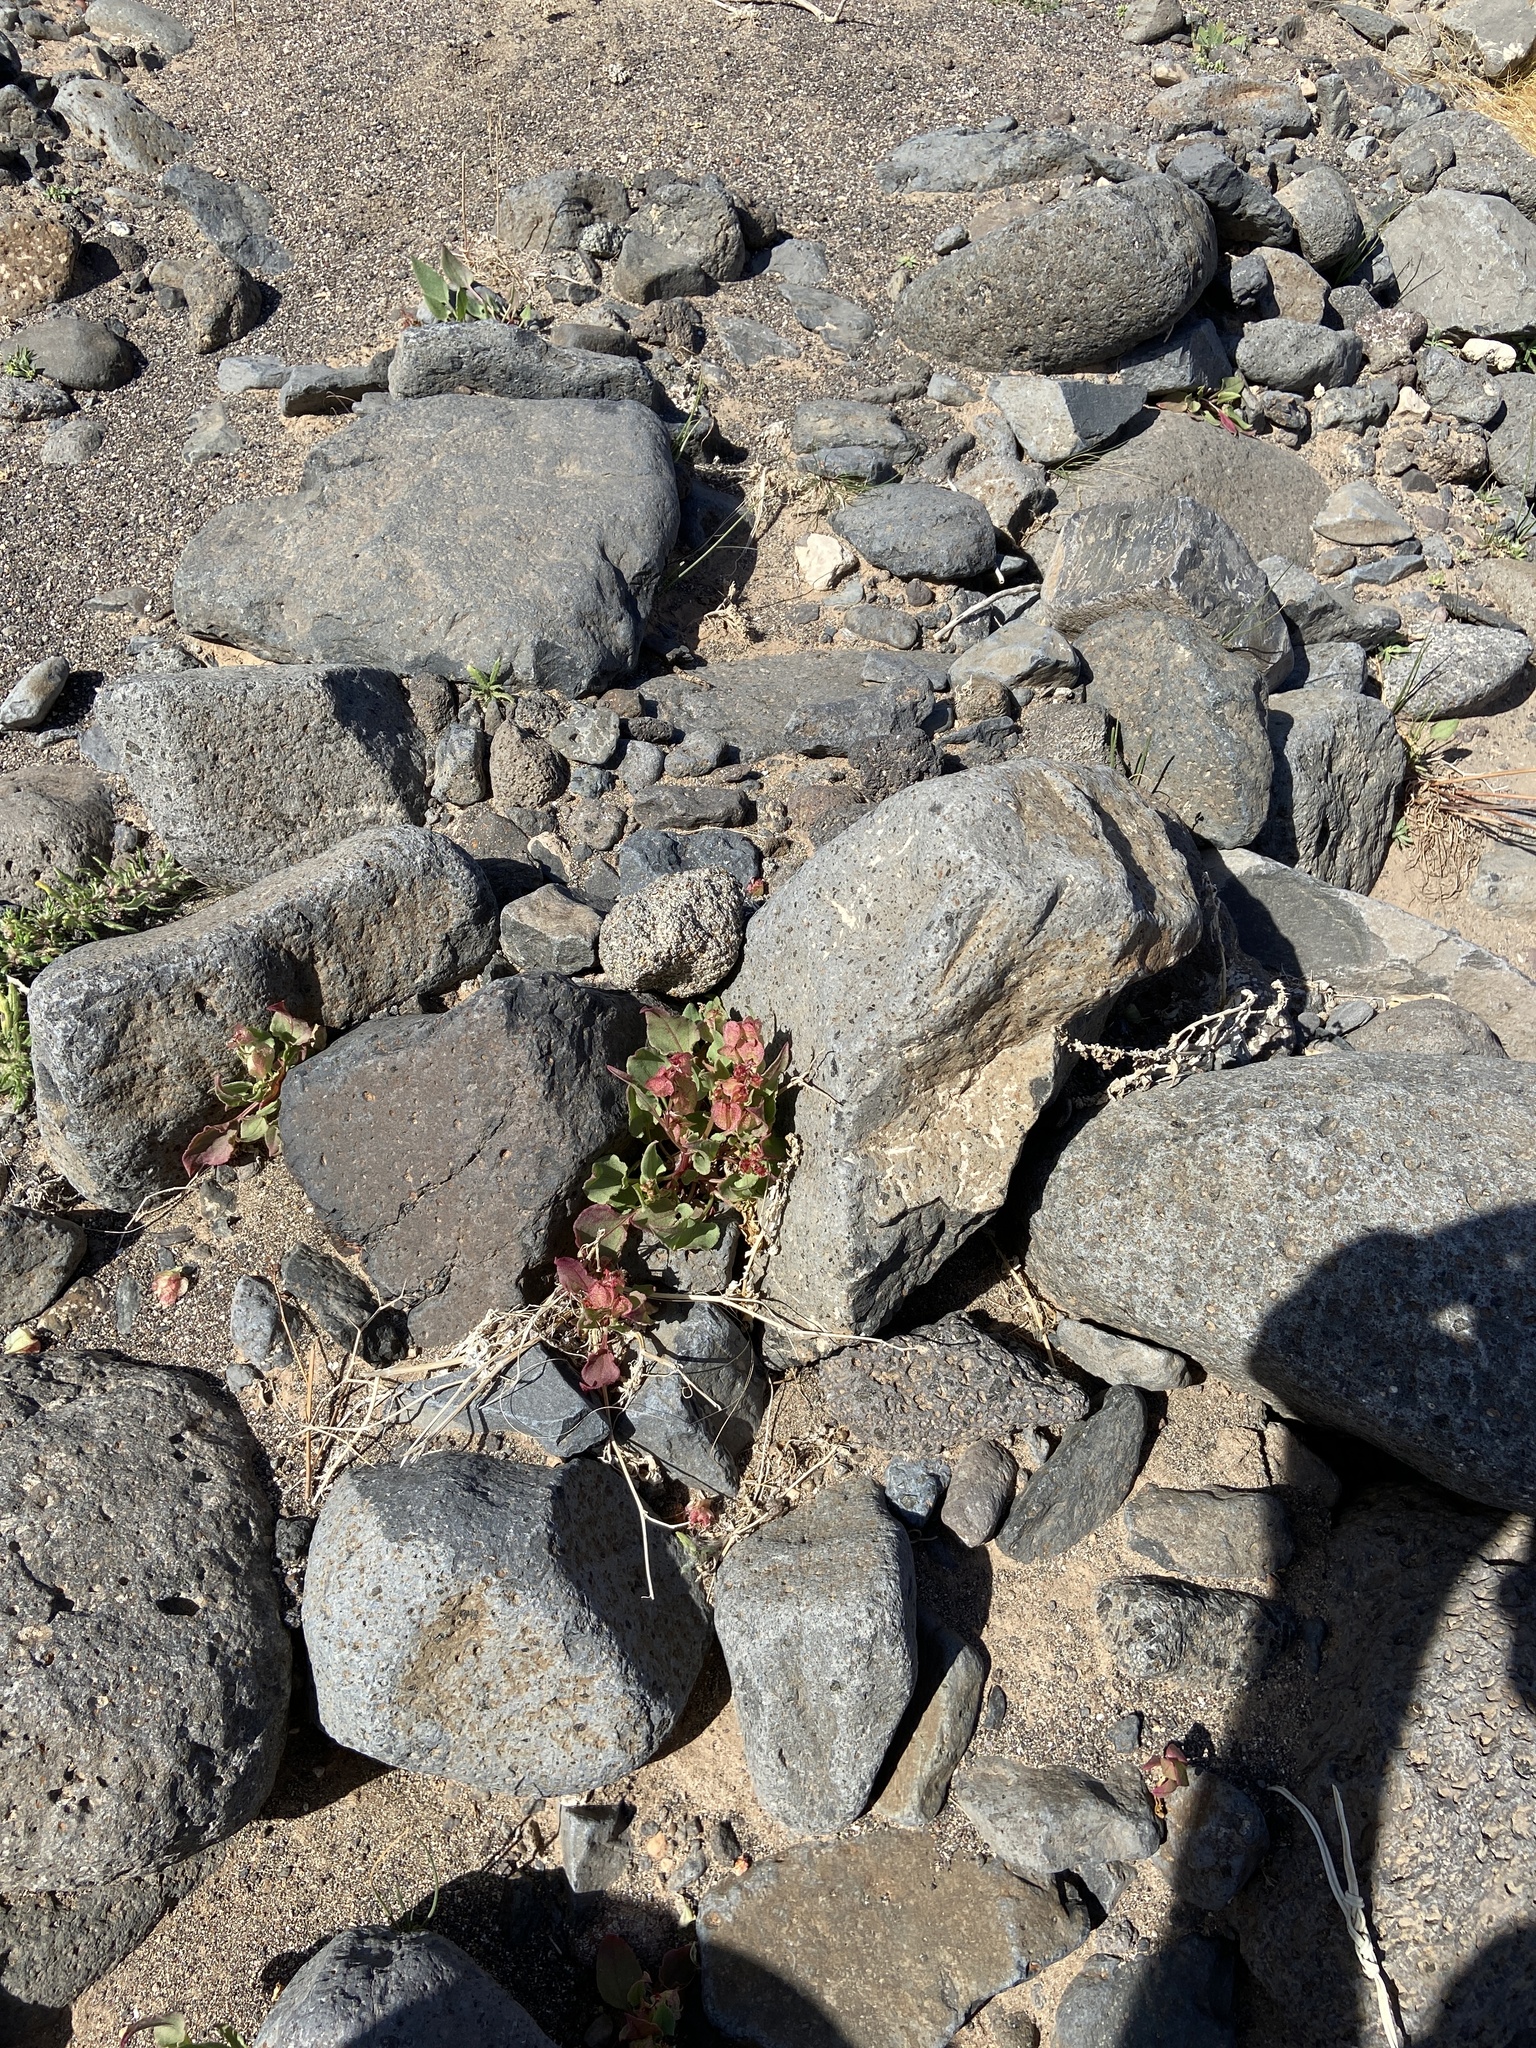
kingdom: Plantae
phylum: Tracheophyta
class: Magnoliopsida
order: Caryophyllales
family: Polygonaceae
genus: Rumex
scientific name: Rumex vesicarius
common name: Bladder dock
